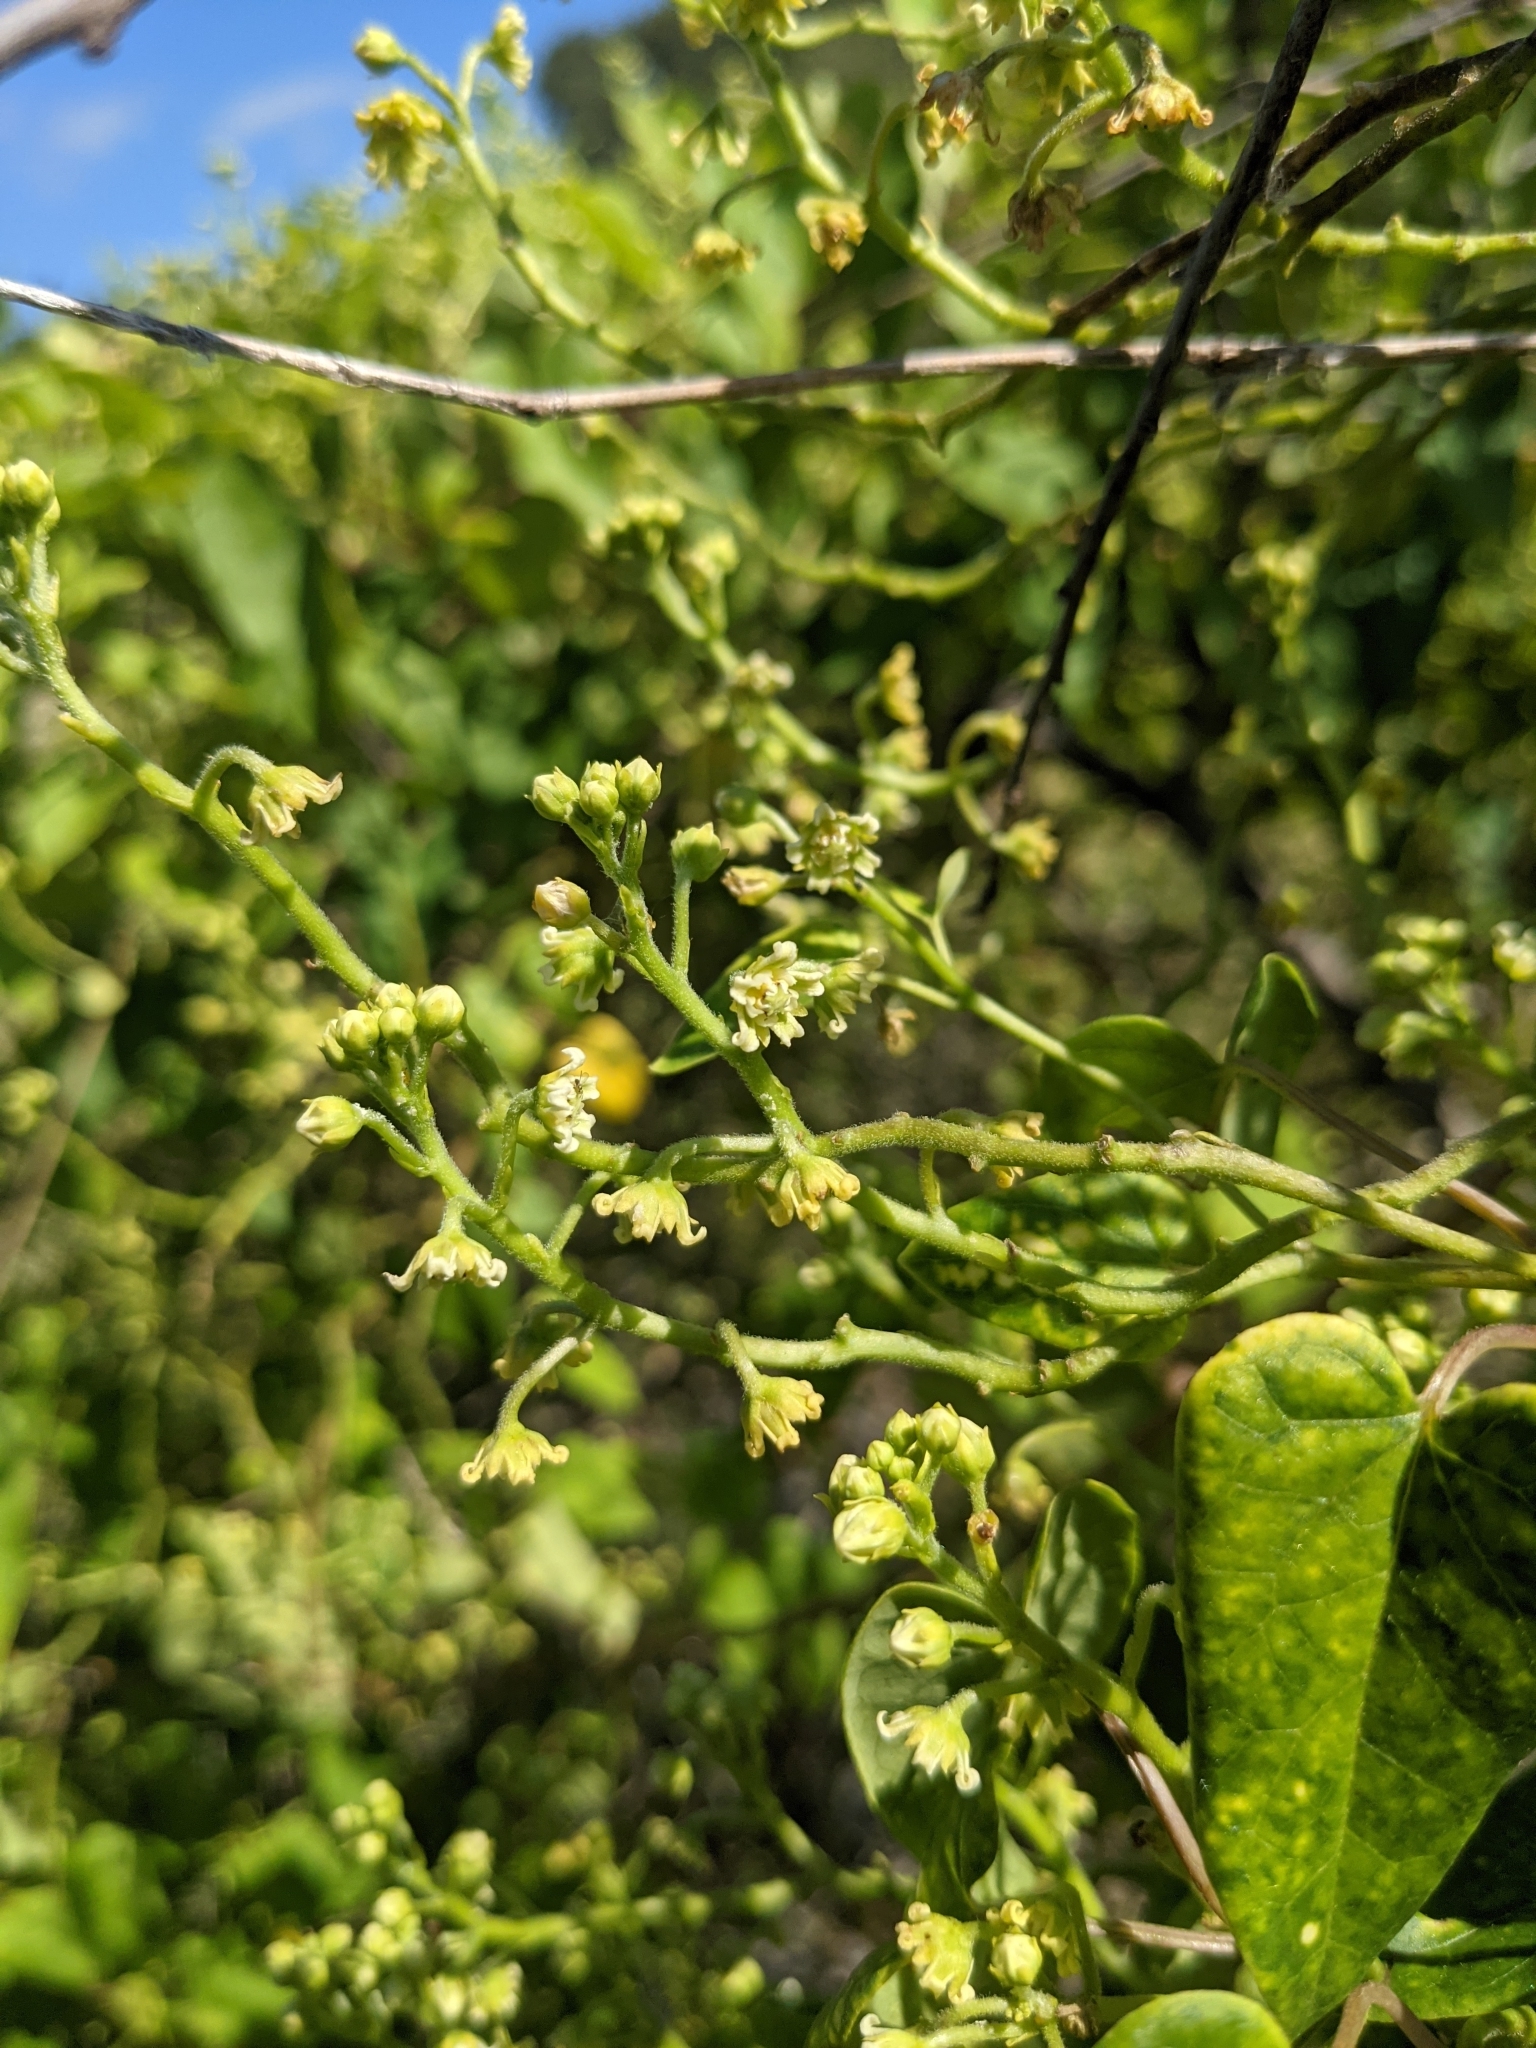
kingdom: Plantae
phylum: Tracheophyta
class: Magnoliopsida
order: Gentianales
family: Apocynaceae
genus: Cynanchum
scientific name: Cynanchum racemosum
